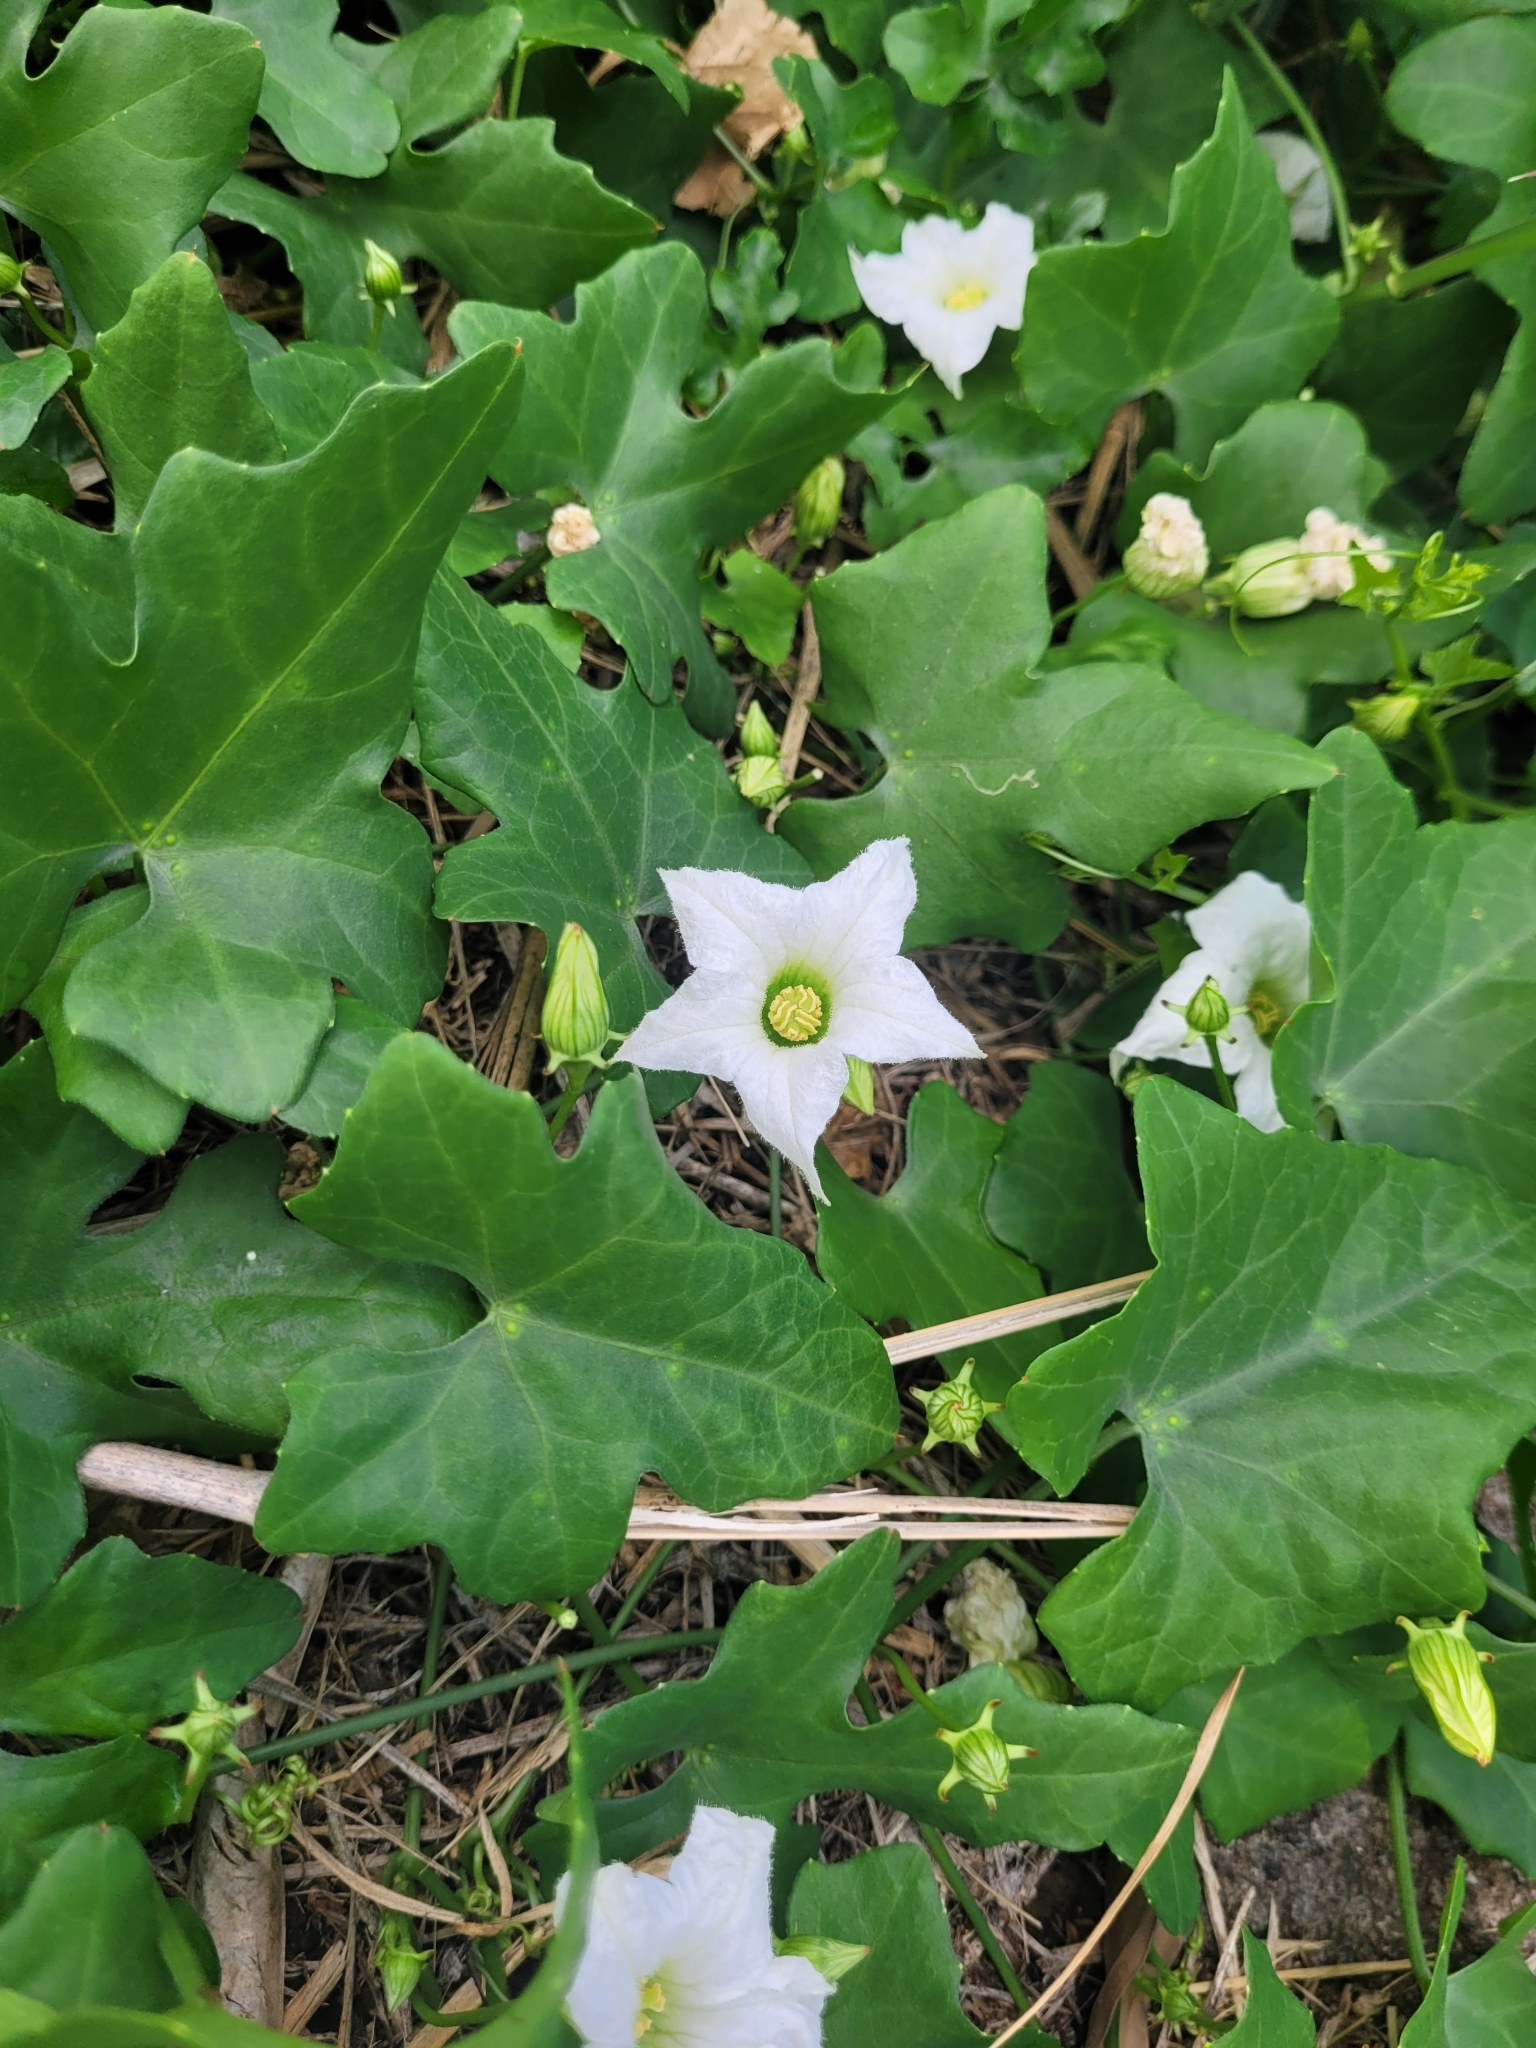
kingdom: Plantae
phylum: Tracheophyta
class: Magnoliopsida
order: Cucurbitales
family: Cucurbitaceae
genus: Coccinia
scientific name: Coccinia grandis
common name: Ivy gourd
